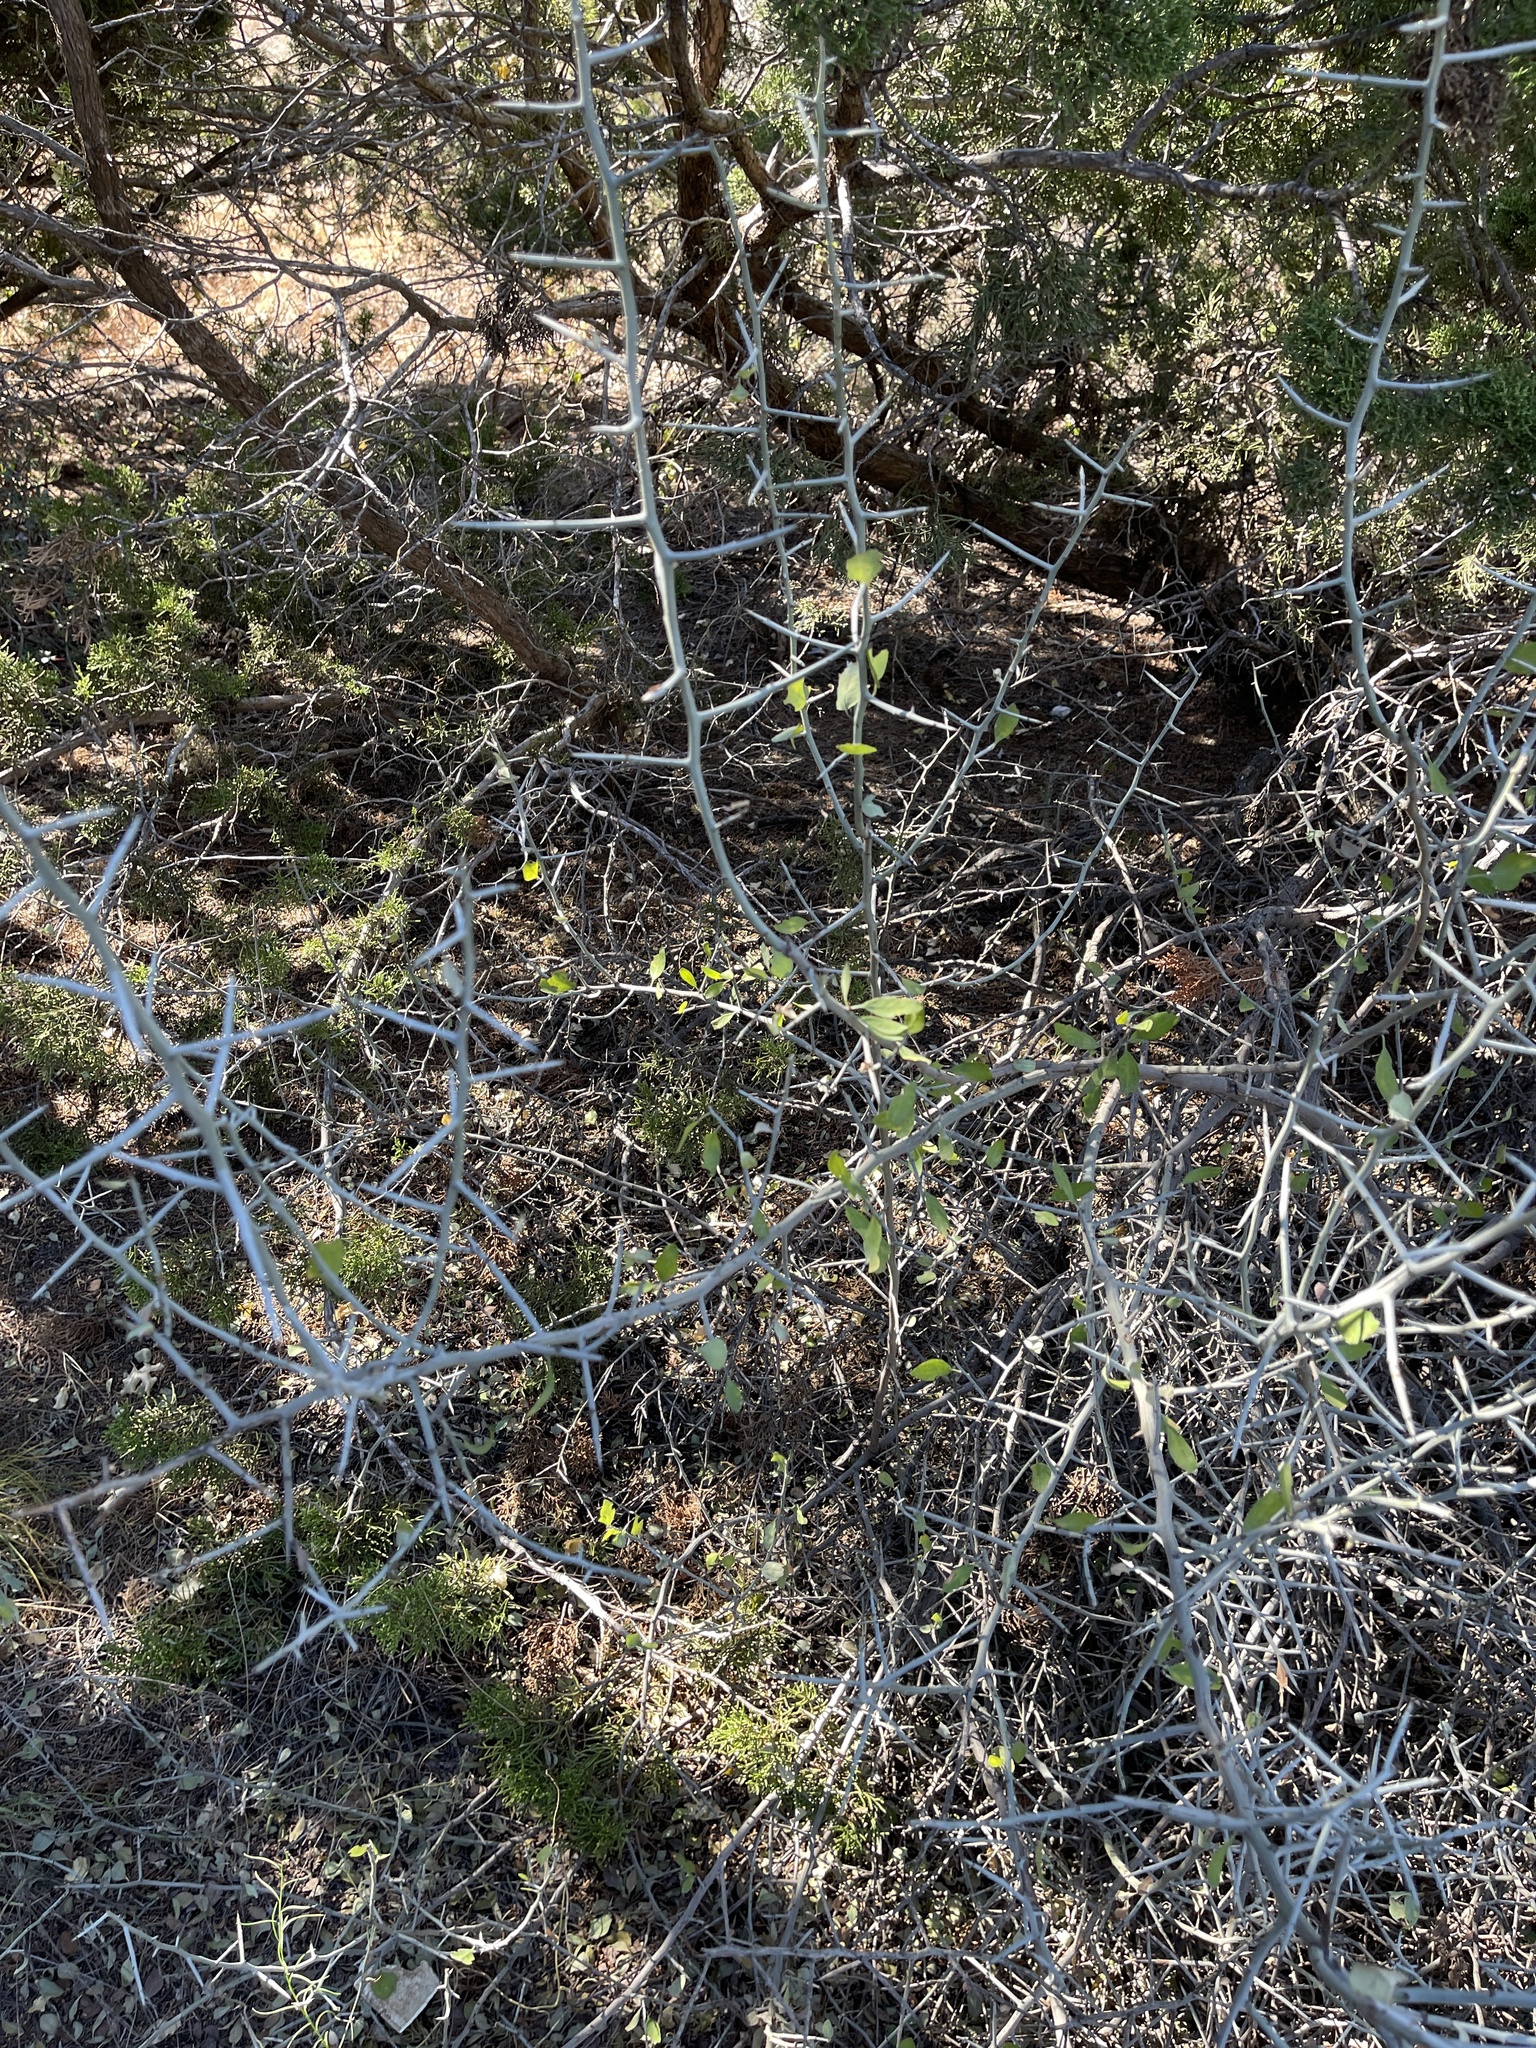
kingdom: Plantae
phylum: Tracheophyta
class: Magnoliopsida
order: Rosales
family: Rhamnaceae
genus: Sarcomphalus
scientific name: Sarcomphalus obtusifolius
